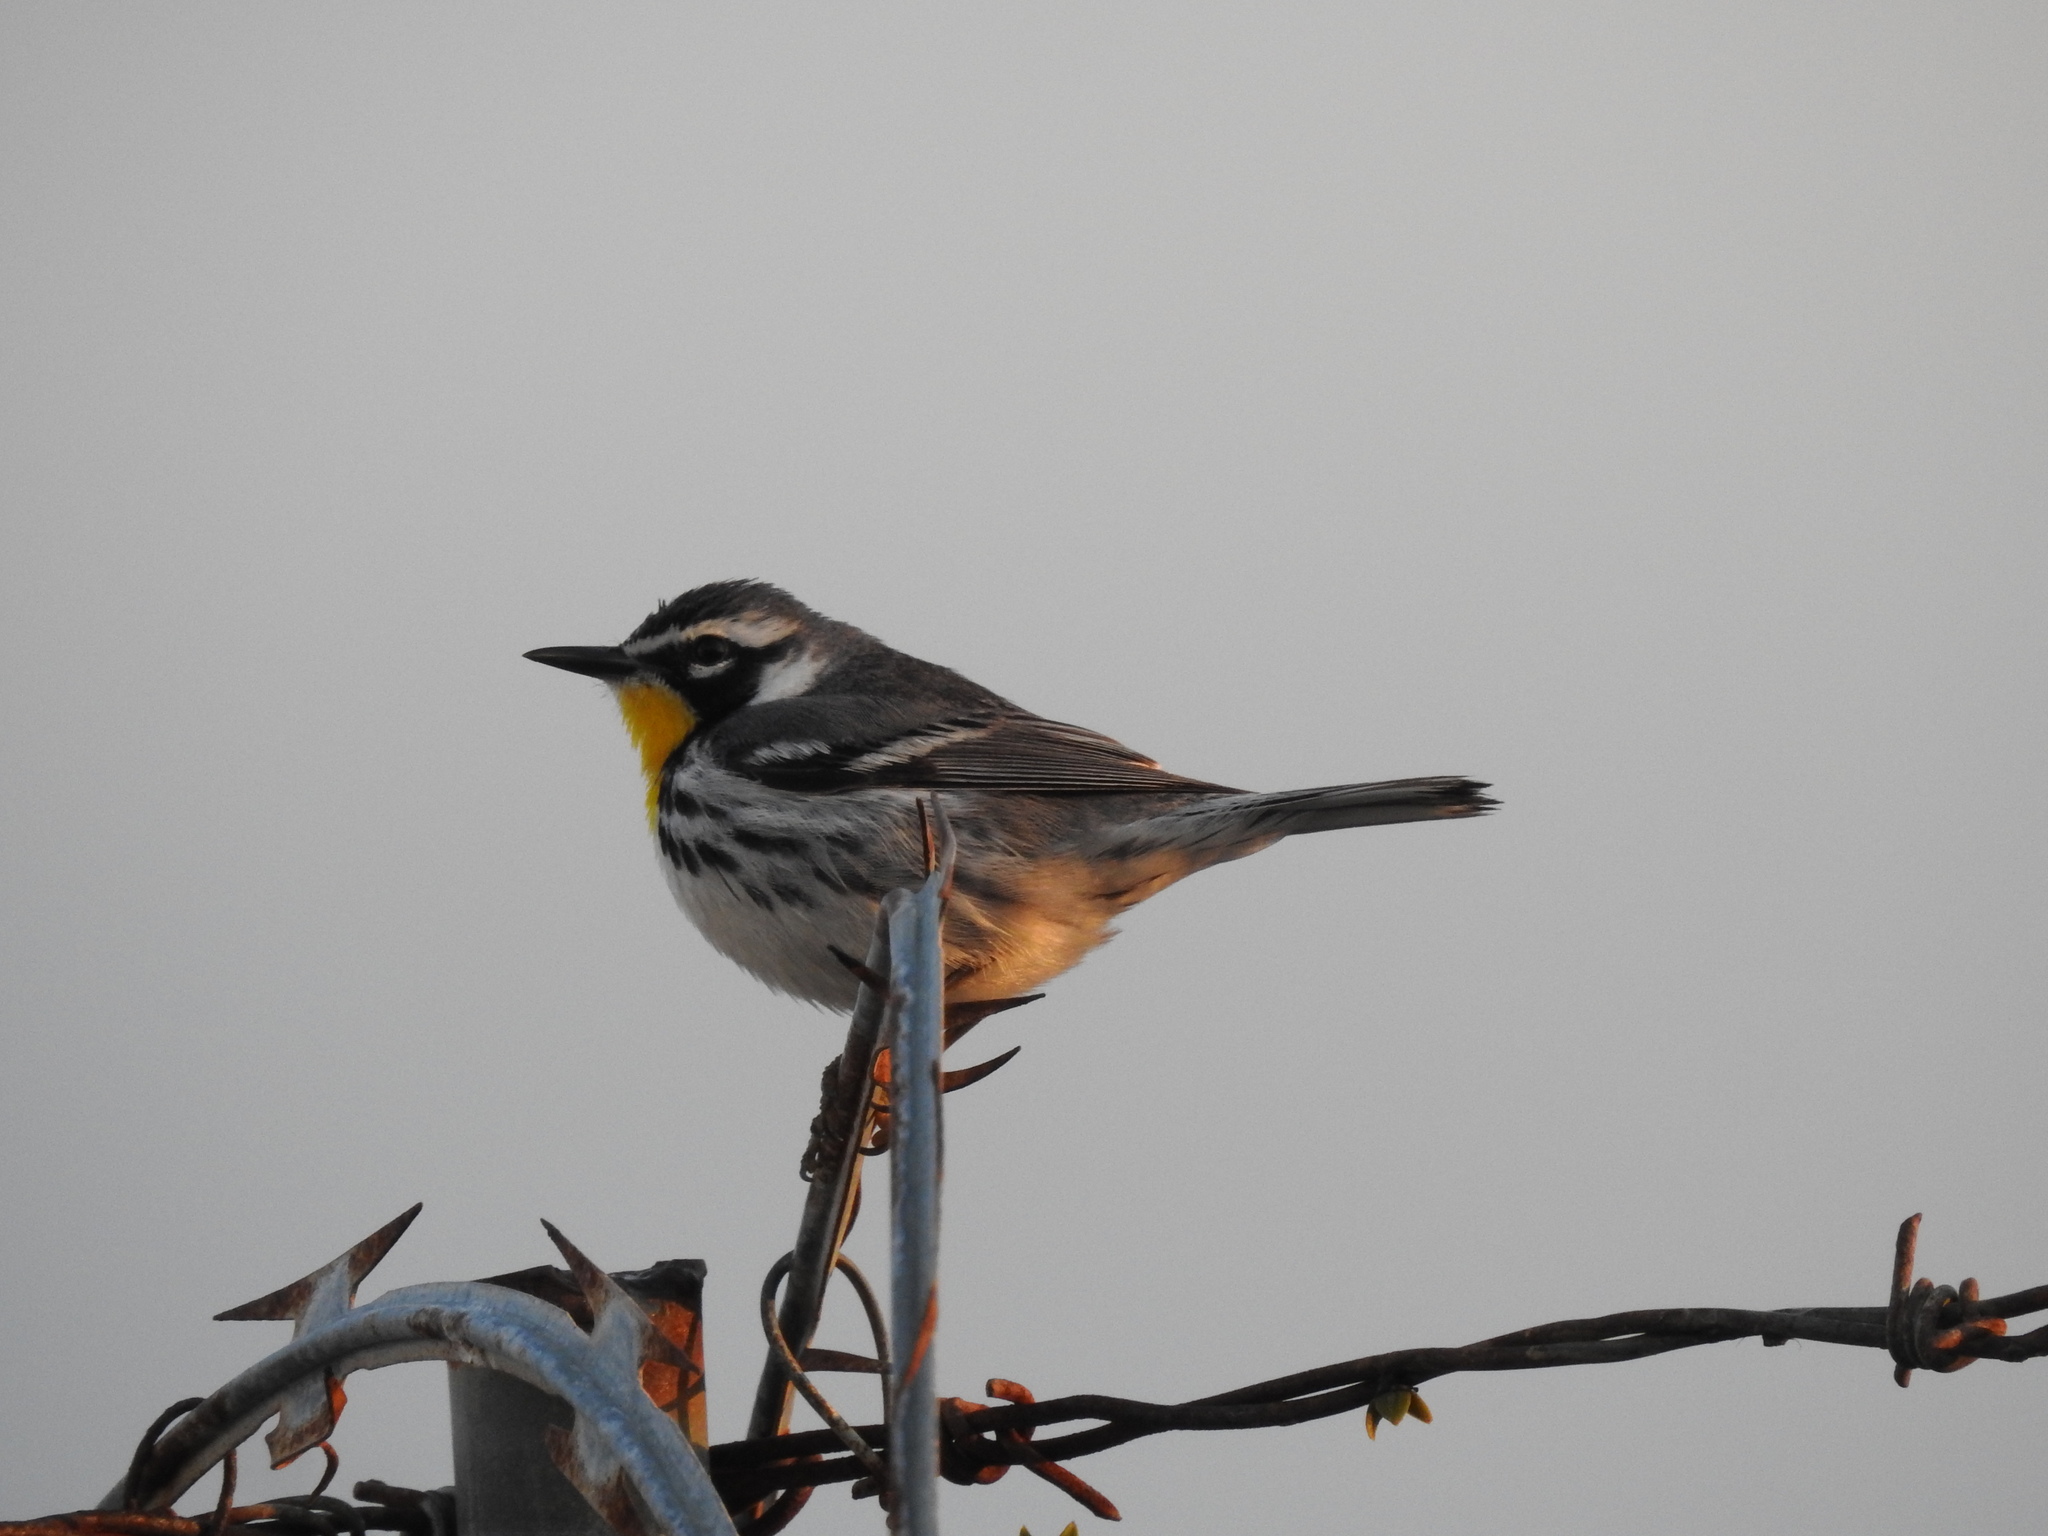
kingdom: Animalia
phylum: Chordata
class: Aves
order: Passeriformes
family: Parulidae
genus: Setophaga
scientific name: Setophaga dominica
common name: Yellow-throated warbler
